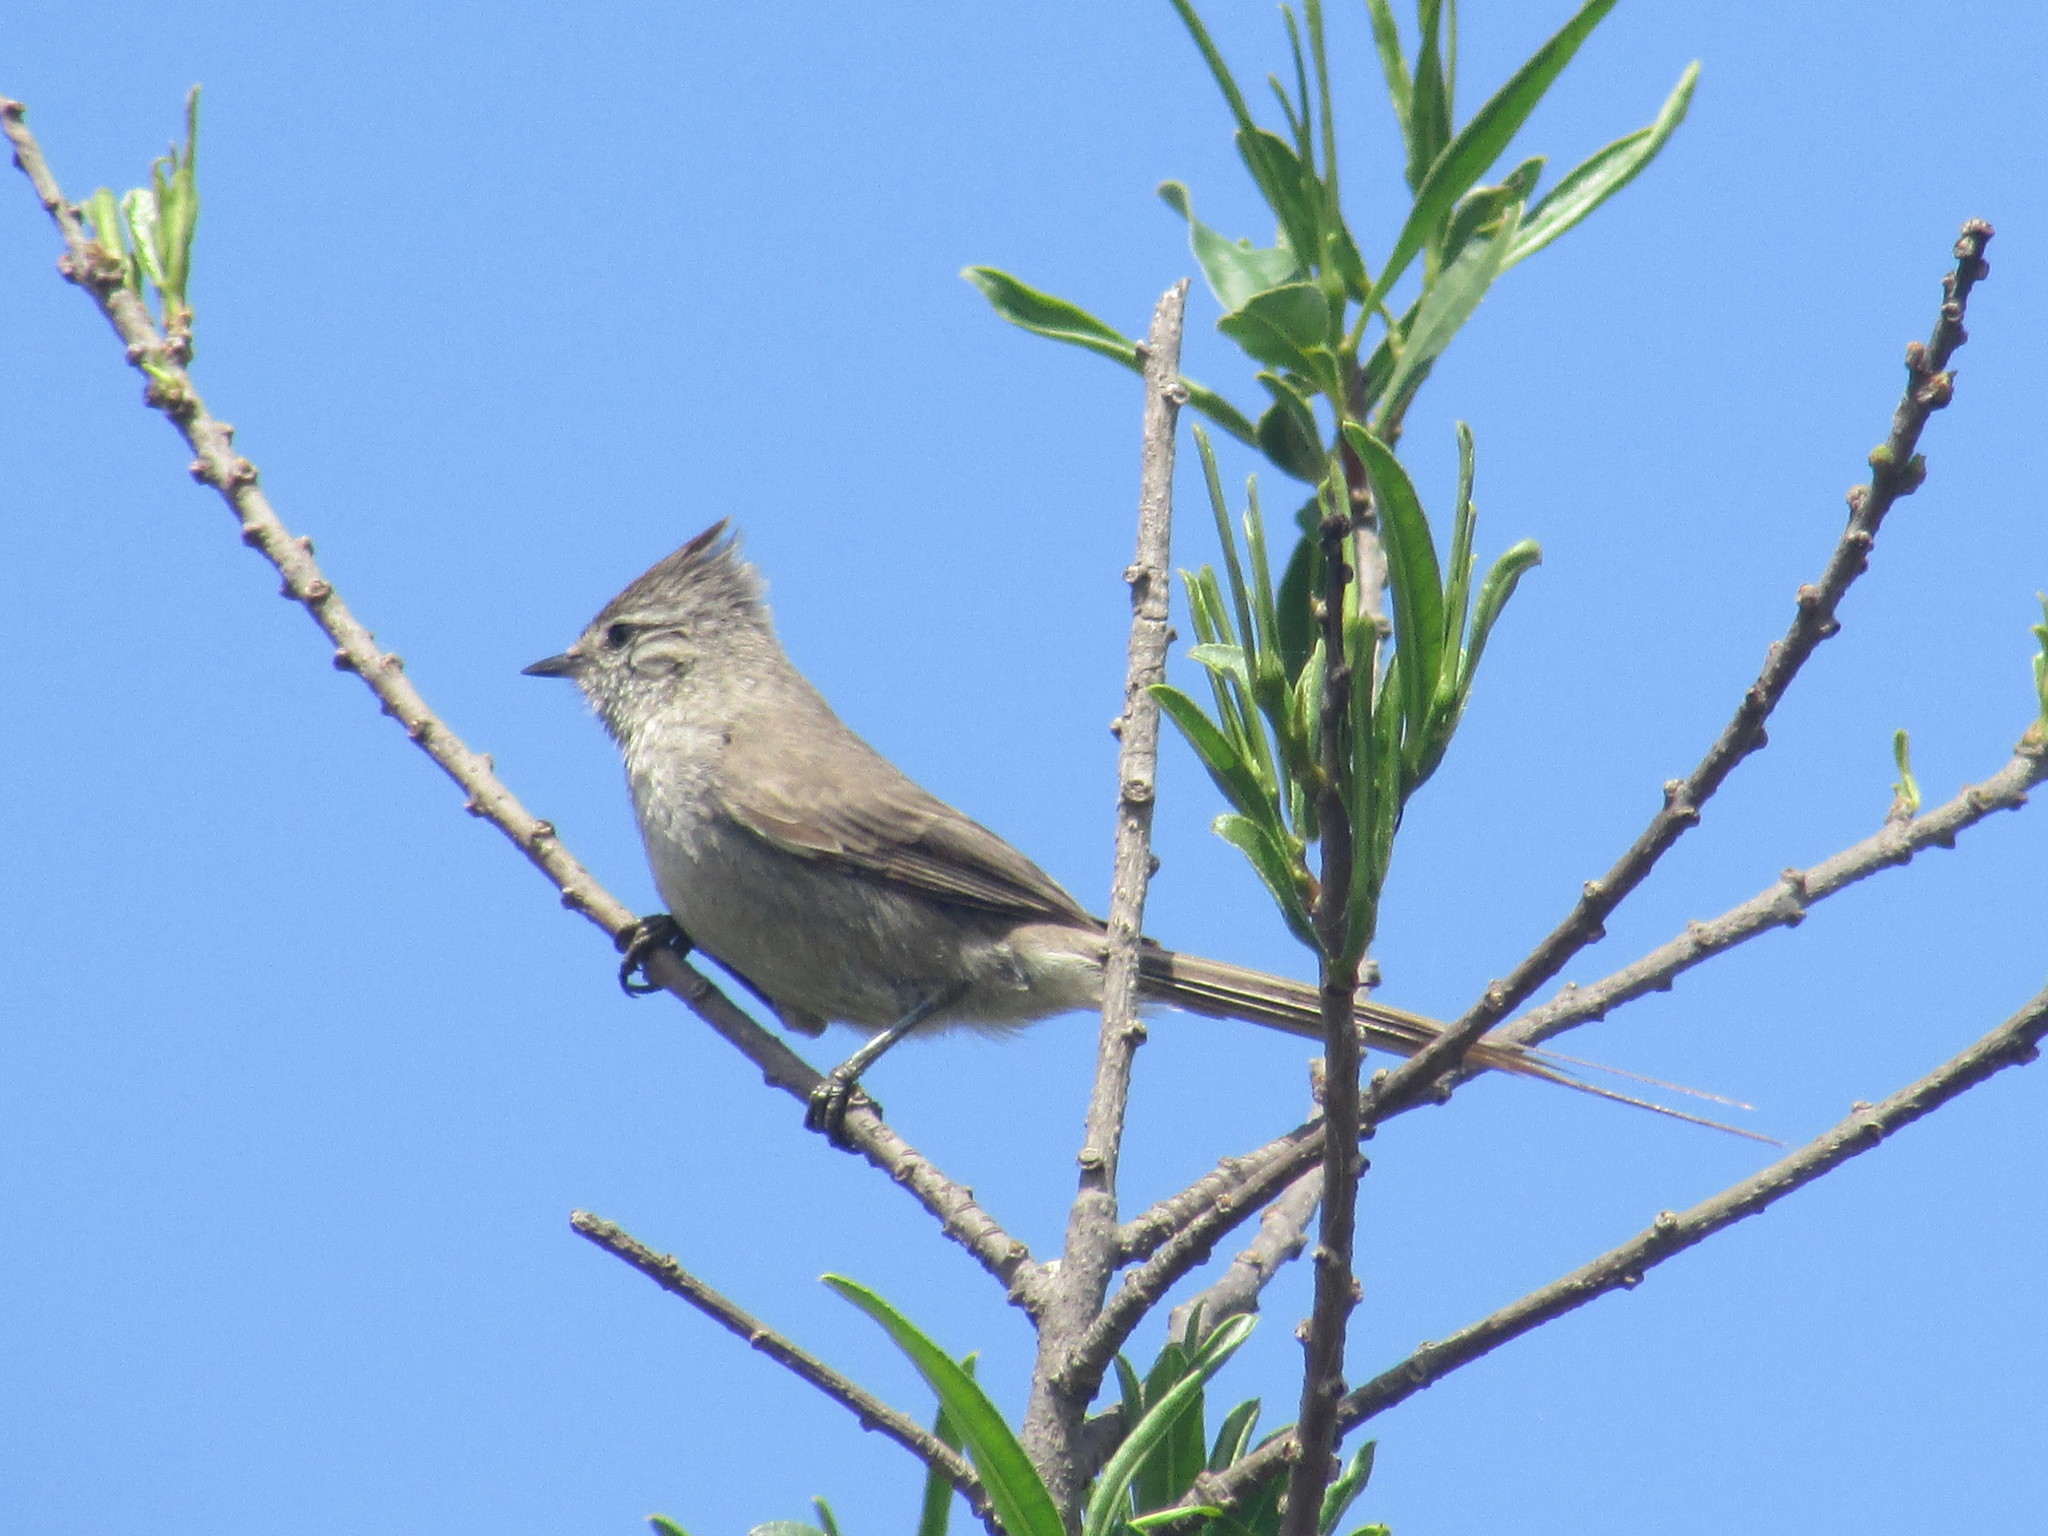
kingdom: Animalia
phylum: Chordata
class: Aves
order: Passeriformes
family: Furnariidae
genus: Leptasthenura
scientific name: Leptasthenura platensis
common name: Tufted tit-spinetail
